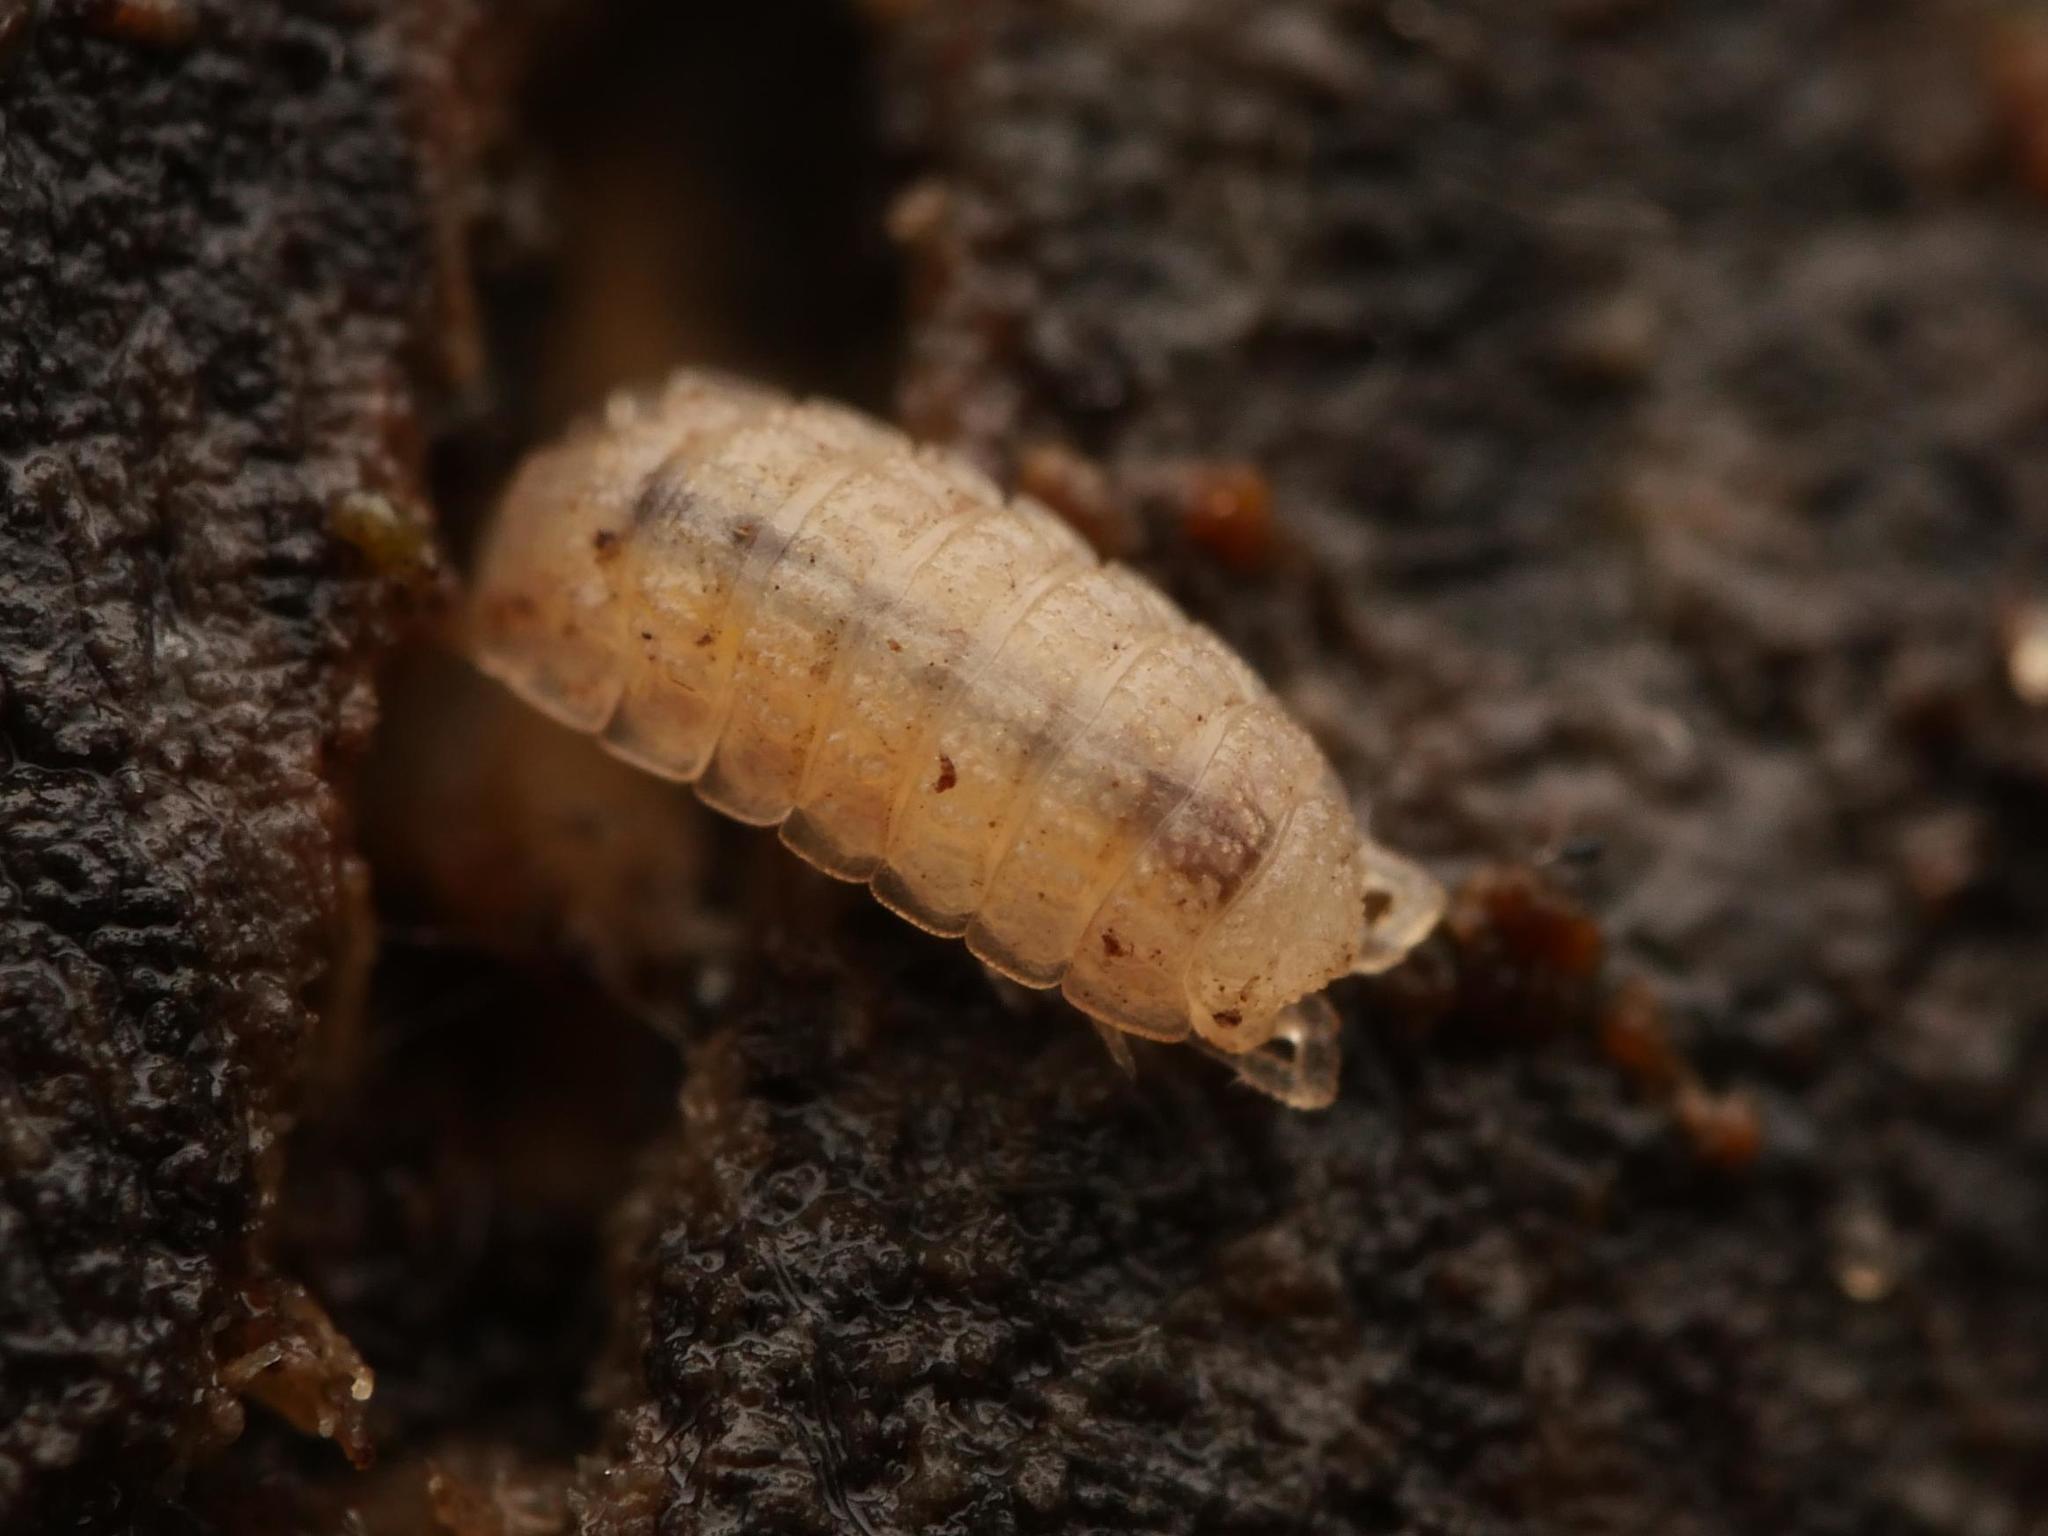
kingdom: Animalia
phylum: Arthropoda
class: Malacostraca
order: Isopoda
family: Trichoniscidae
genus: Haplophthalmus
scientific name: Haplophthalmus danicus
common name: Pillbug
